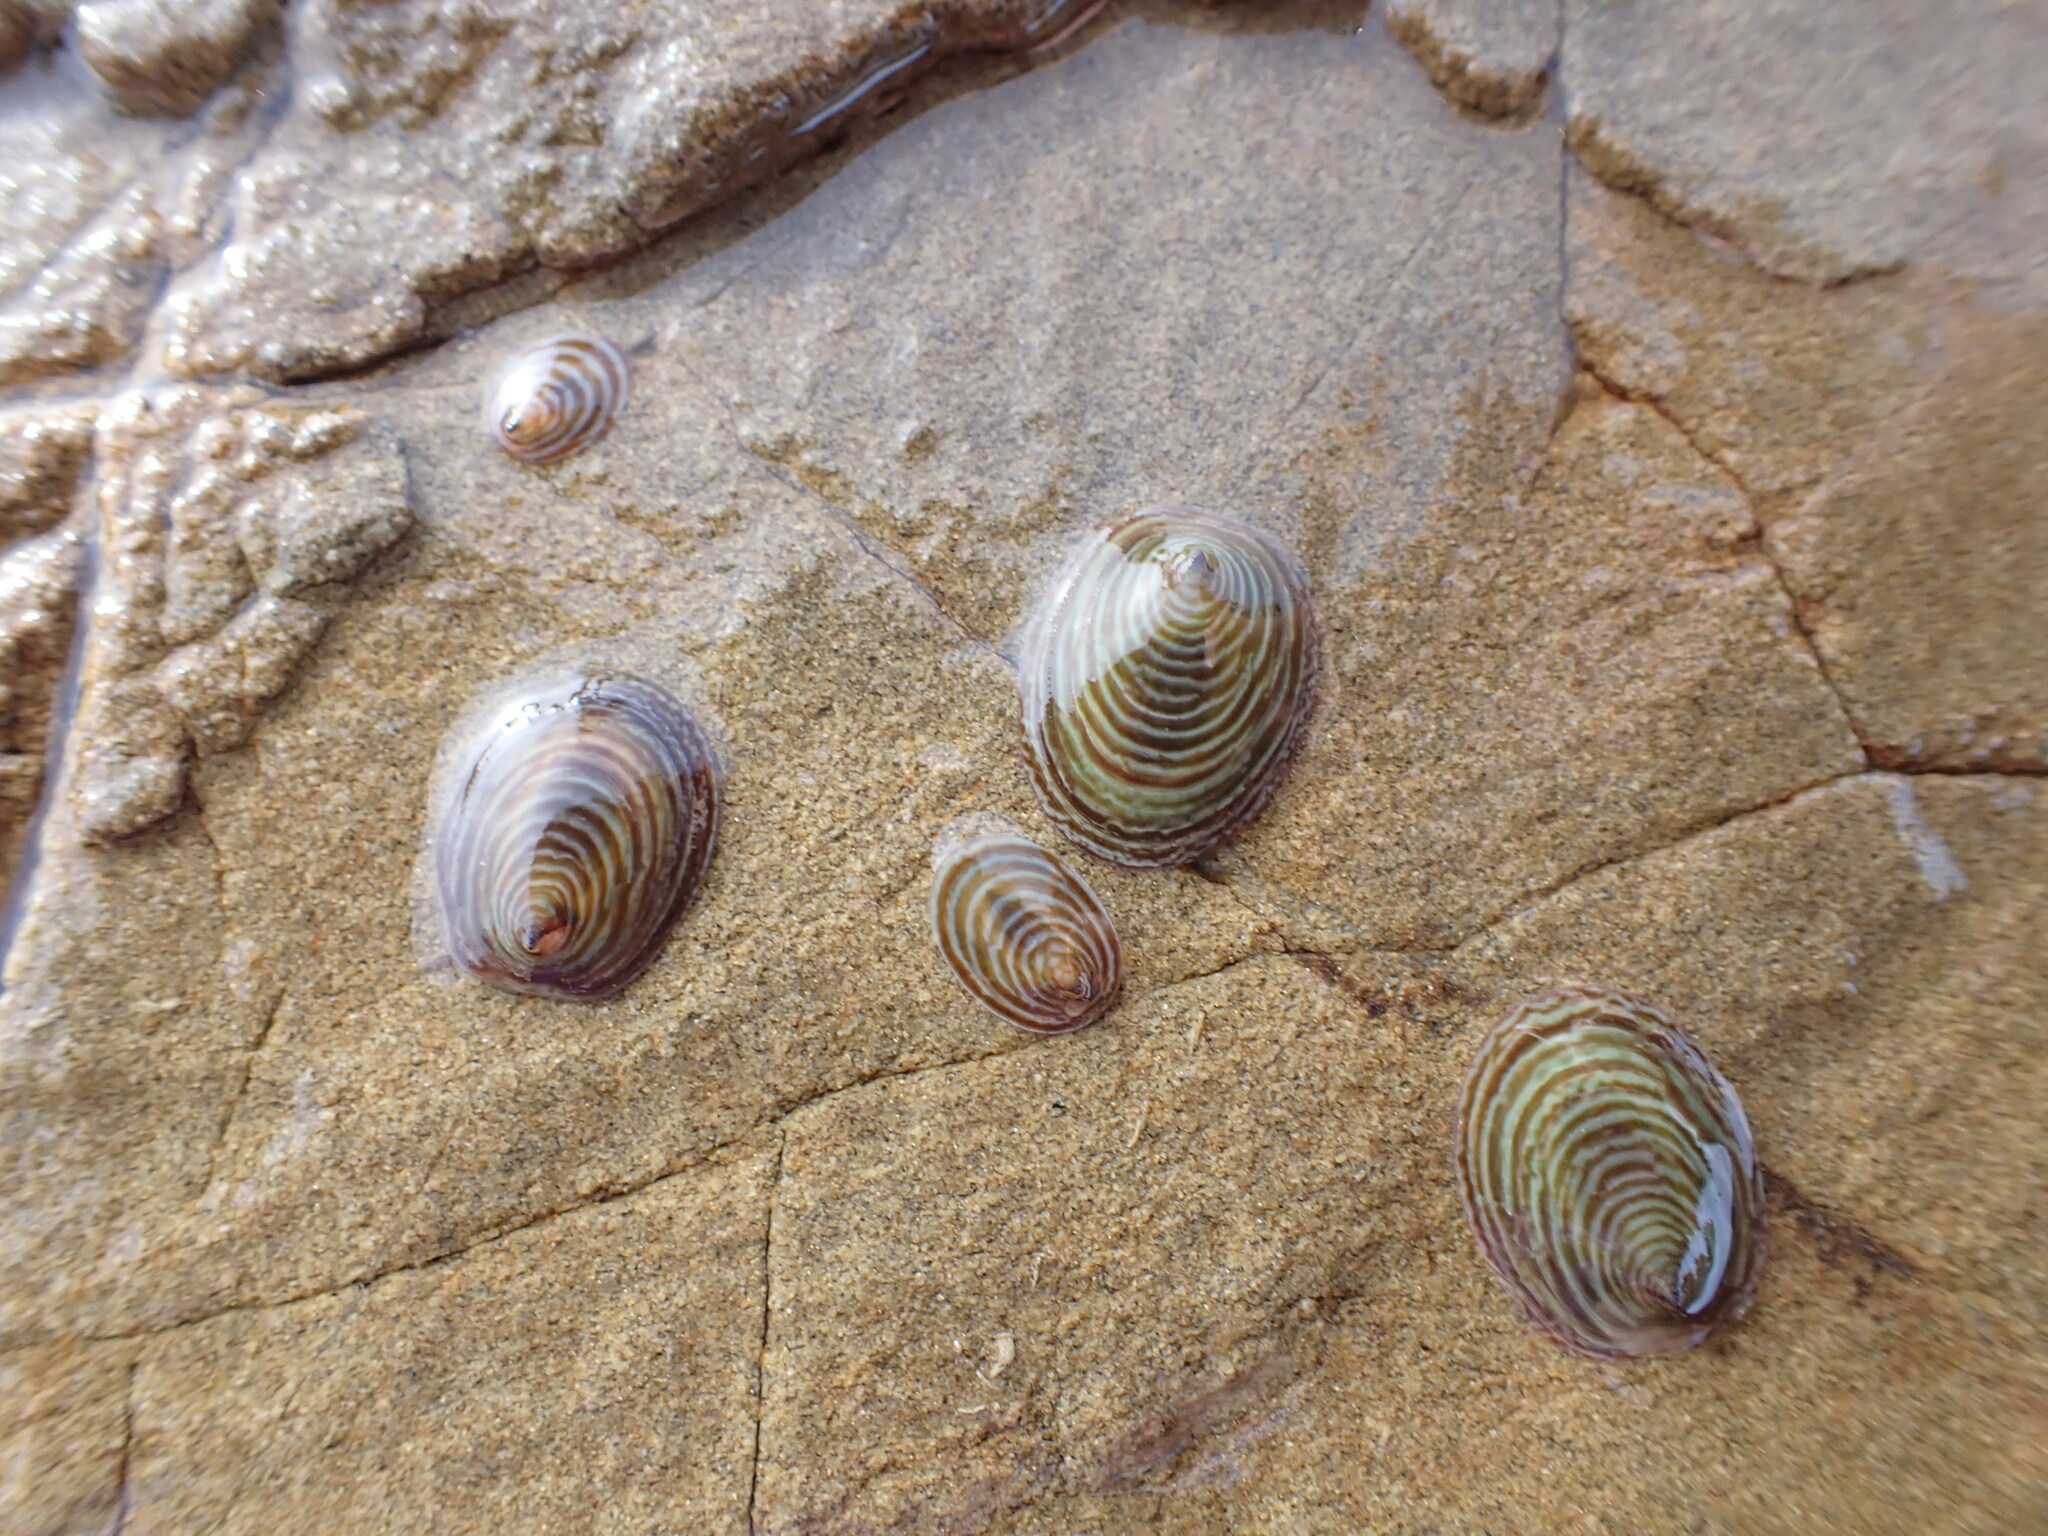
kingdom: Animalia
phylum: Mollusca
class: Gastropoda
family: Lottiidae
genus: Atalacmea
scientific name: Atalacmea fragilis
